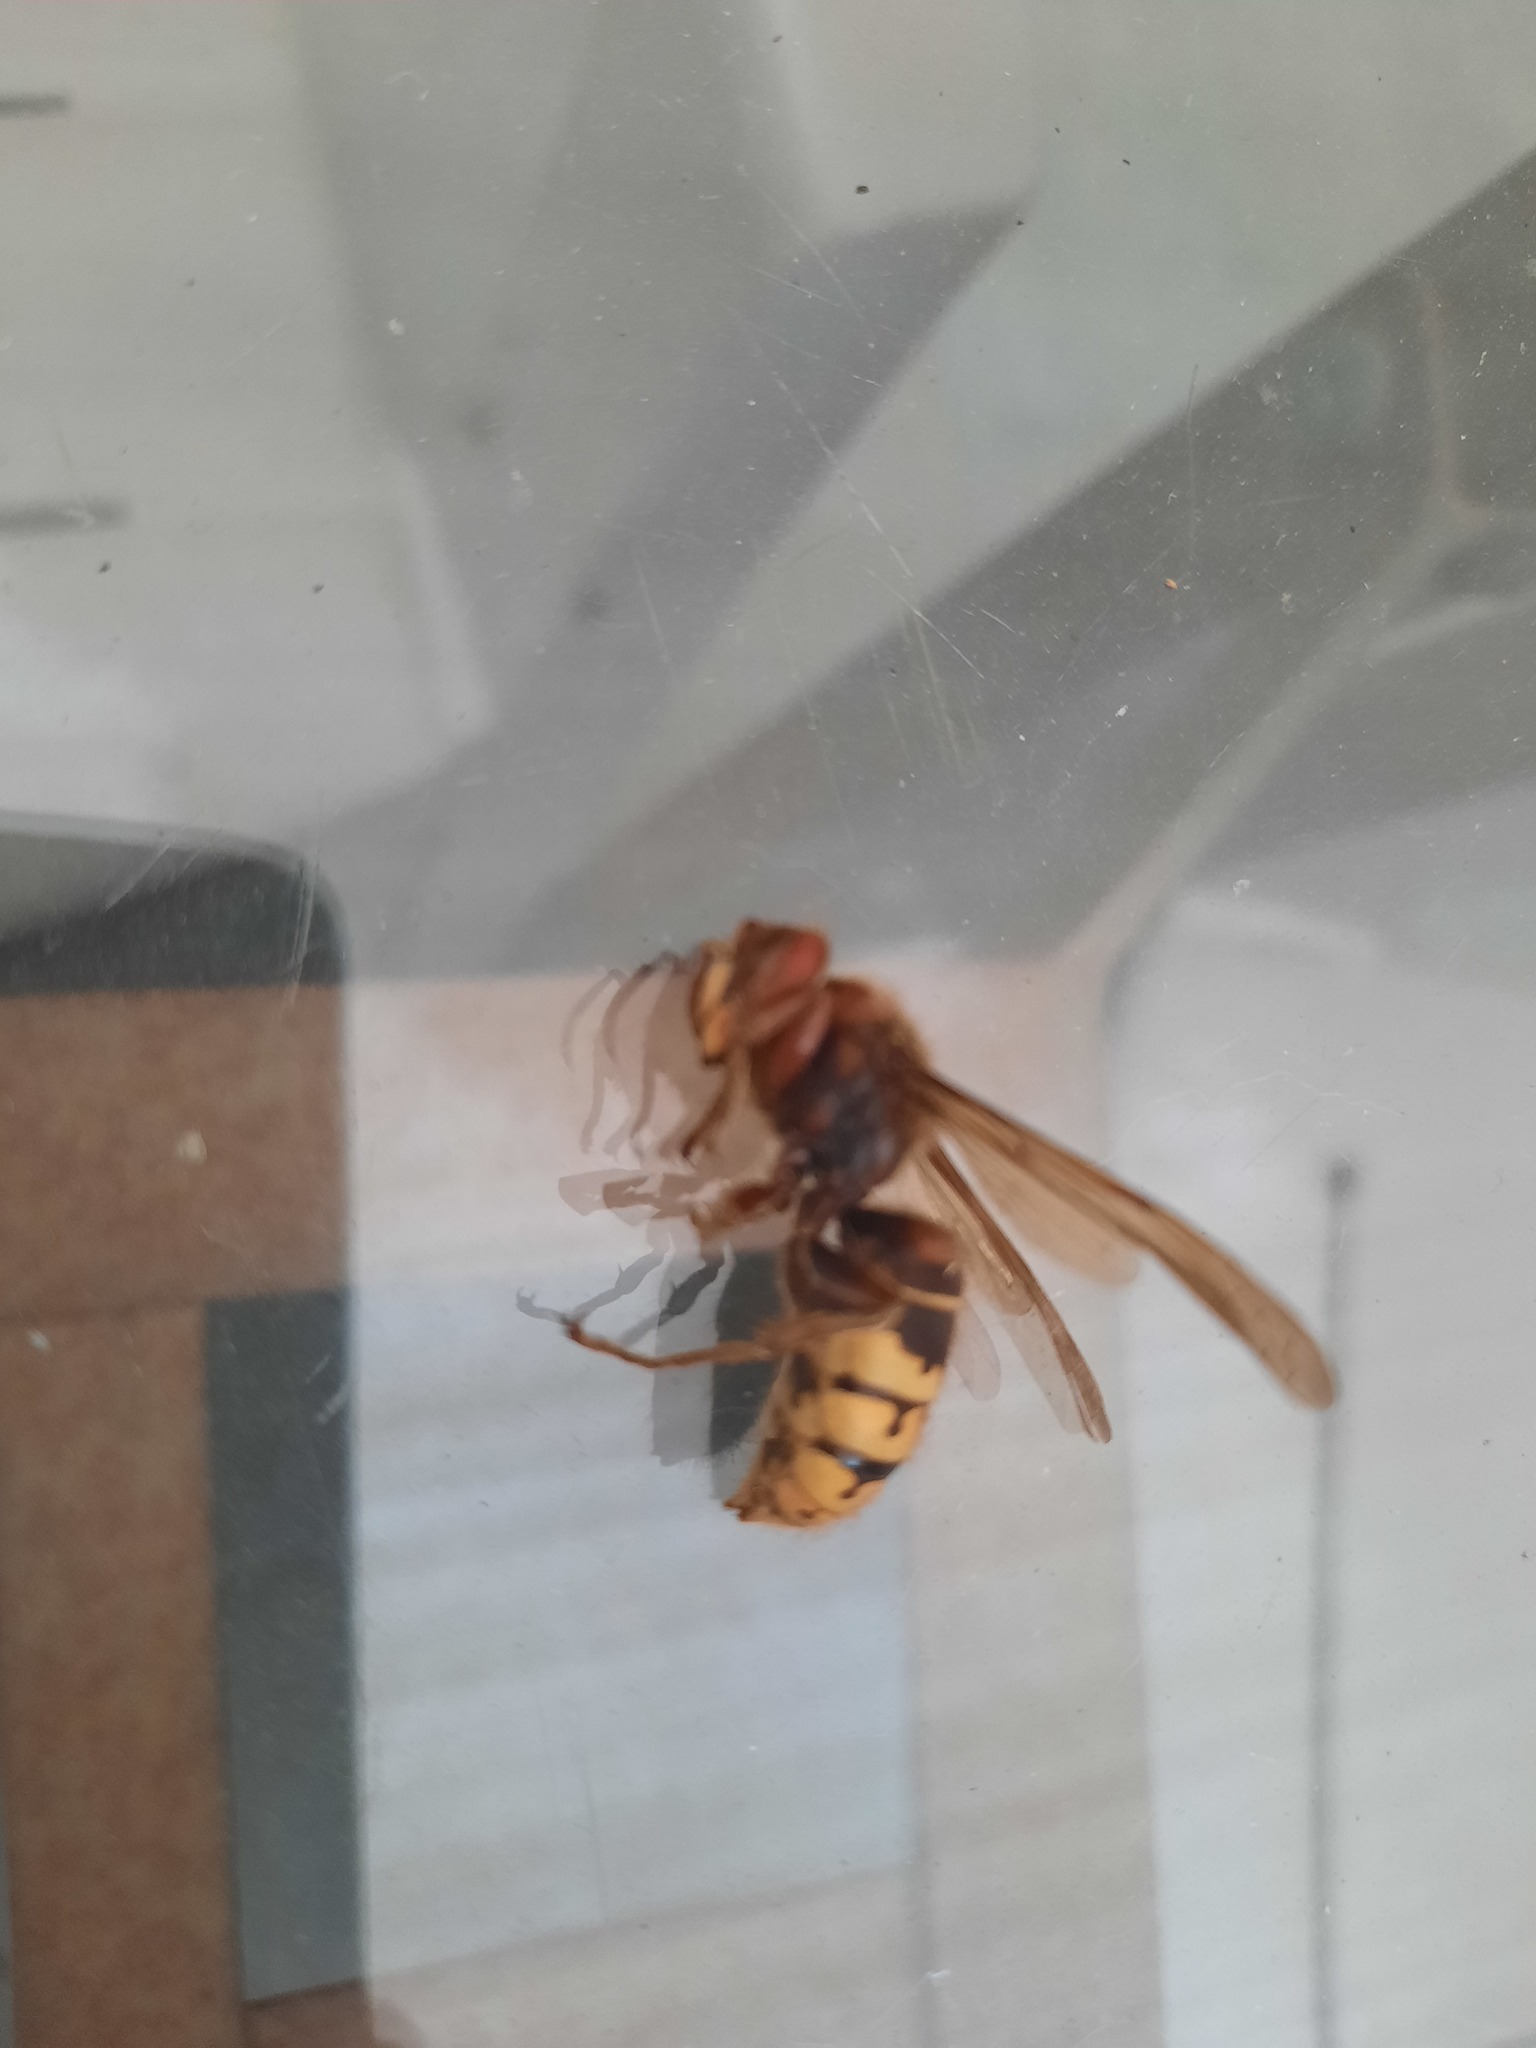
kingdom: Animalia
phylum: Arthropoda
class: Insecta
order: Hymenoptera
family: Vespidae
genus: Vespa
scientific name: Vespa crabro
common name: Hornet
